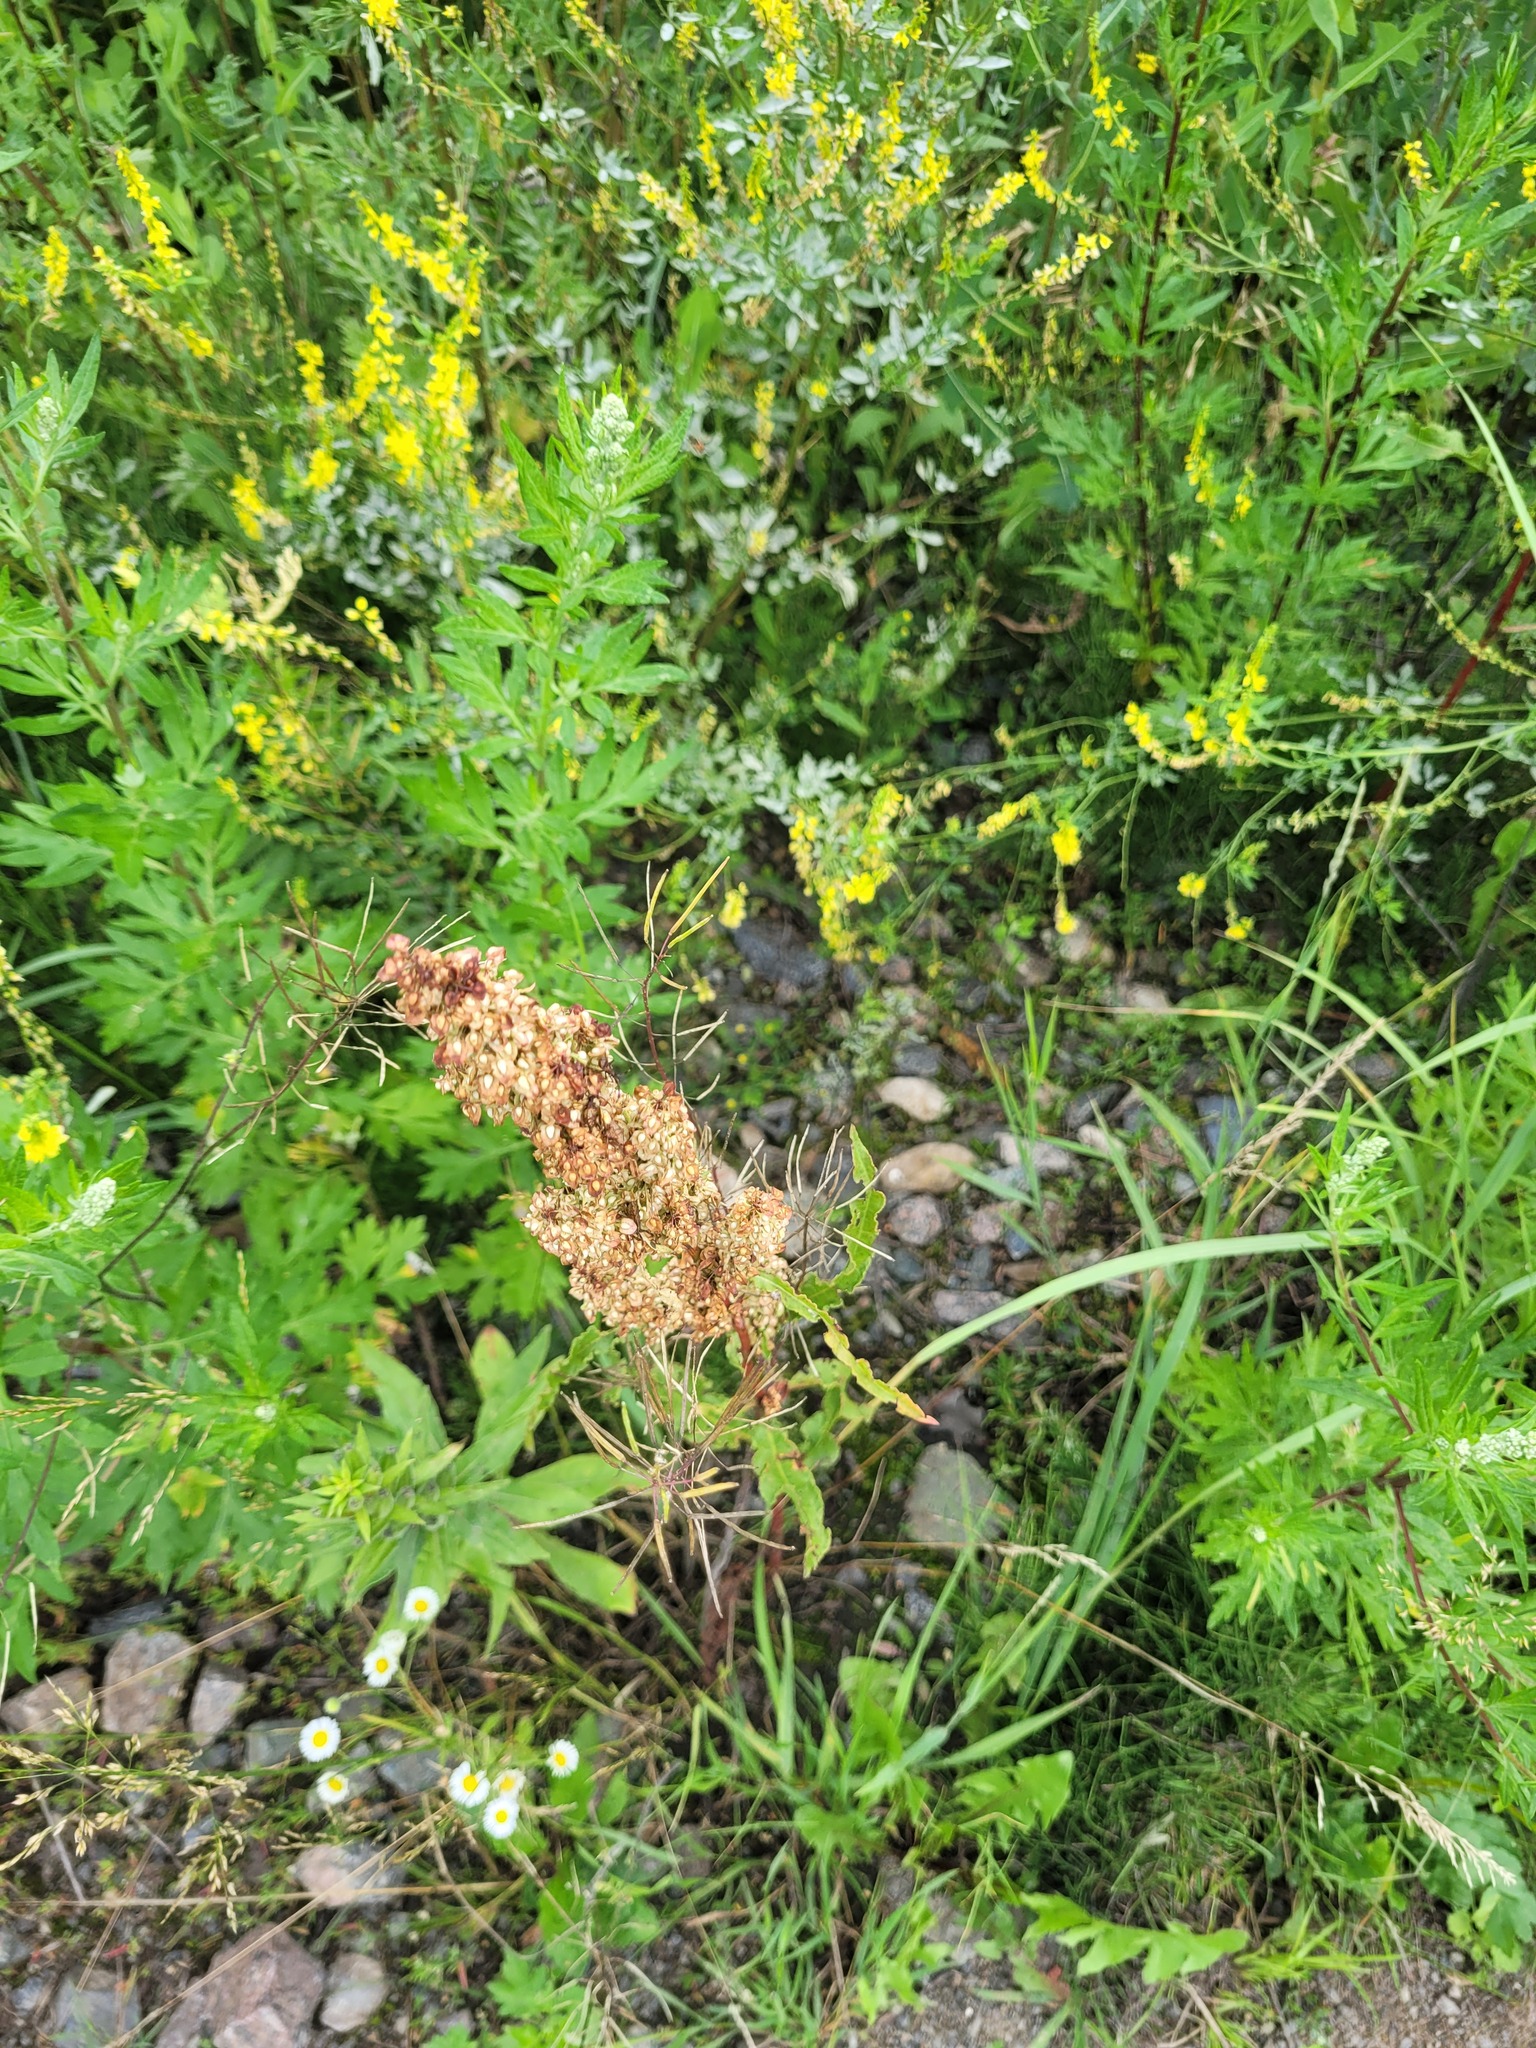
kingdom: Plantae
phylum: Tracheophyta
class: Magnoliopsida
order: Caryophyllales
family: Polygonaceae
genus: Rumex
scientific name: Rumex crispus
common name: Curled dock
